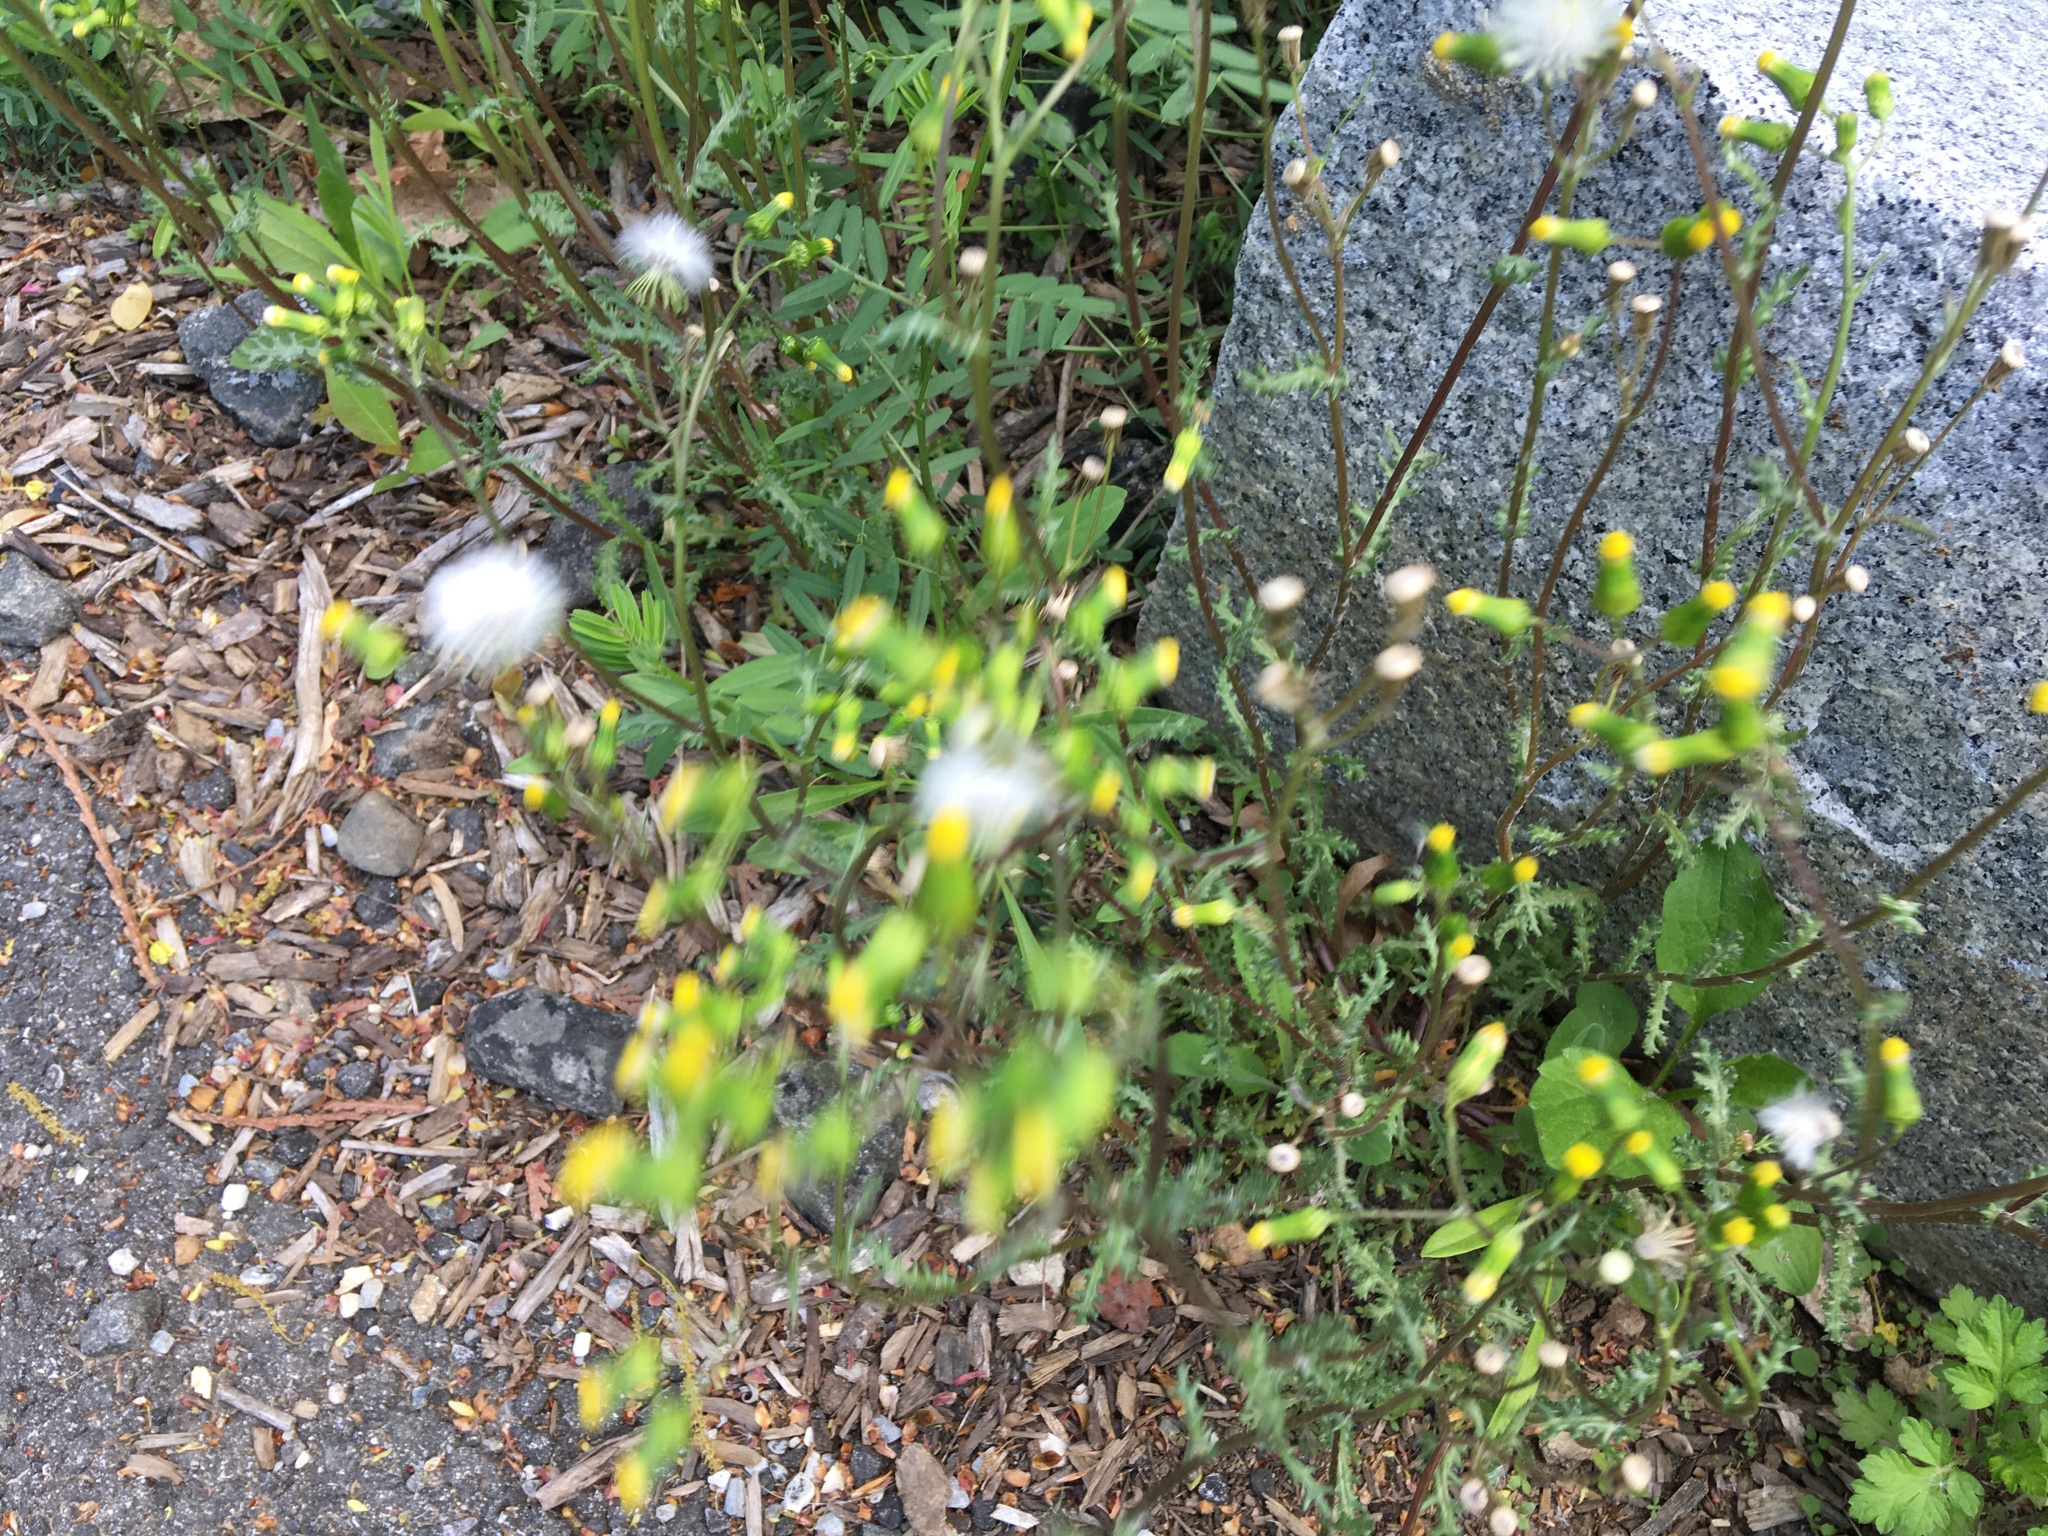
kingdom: Plantae
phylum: Tracheophyta
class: Magnoliopsida
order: Asterales
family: Asteraceae
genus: Senecio
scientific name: Senecio vulgaris
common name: Old-man-in-the-spring
